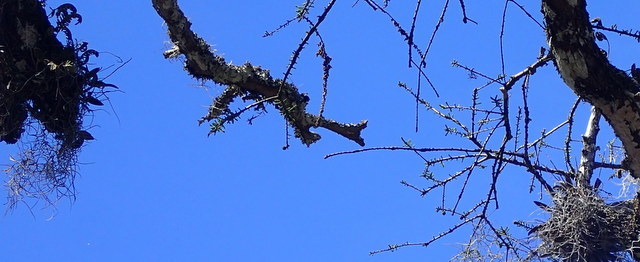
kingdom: Plantae
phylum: Tracheophyta
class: Liliopsida
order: Asparagales
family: Orchidaceae
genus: Epidendrum
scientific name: Epidendrum conopseum
